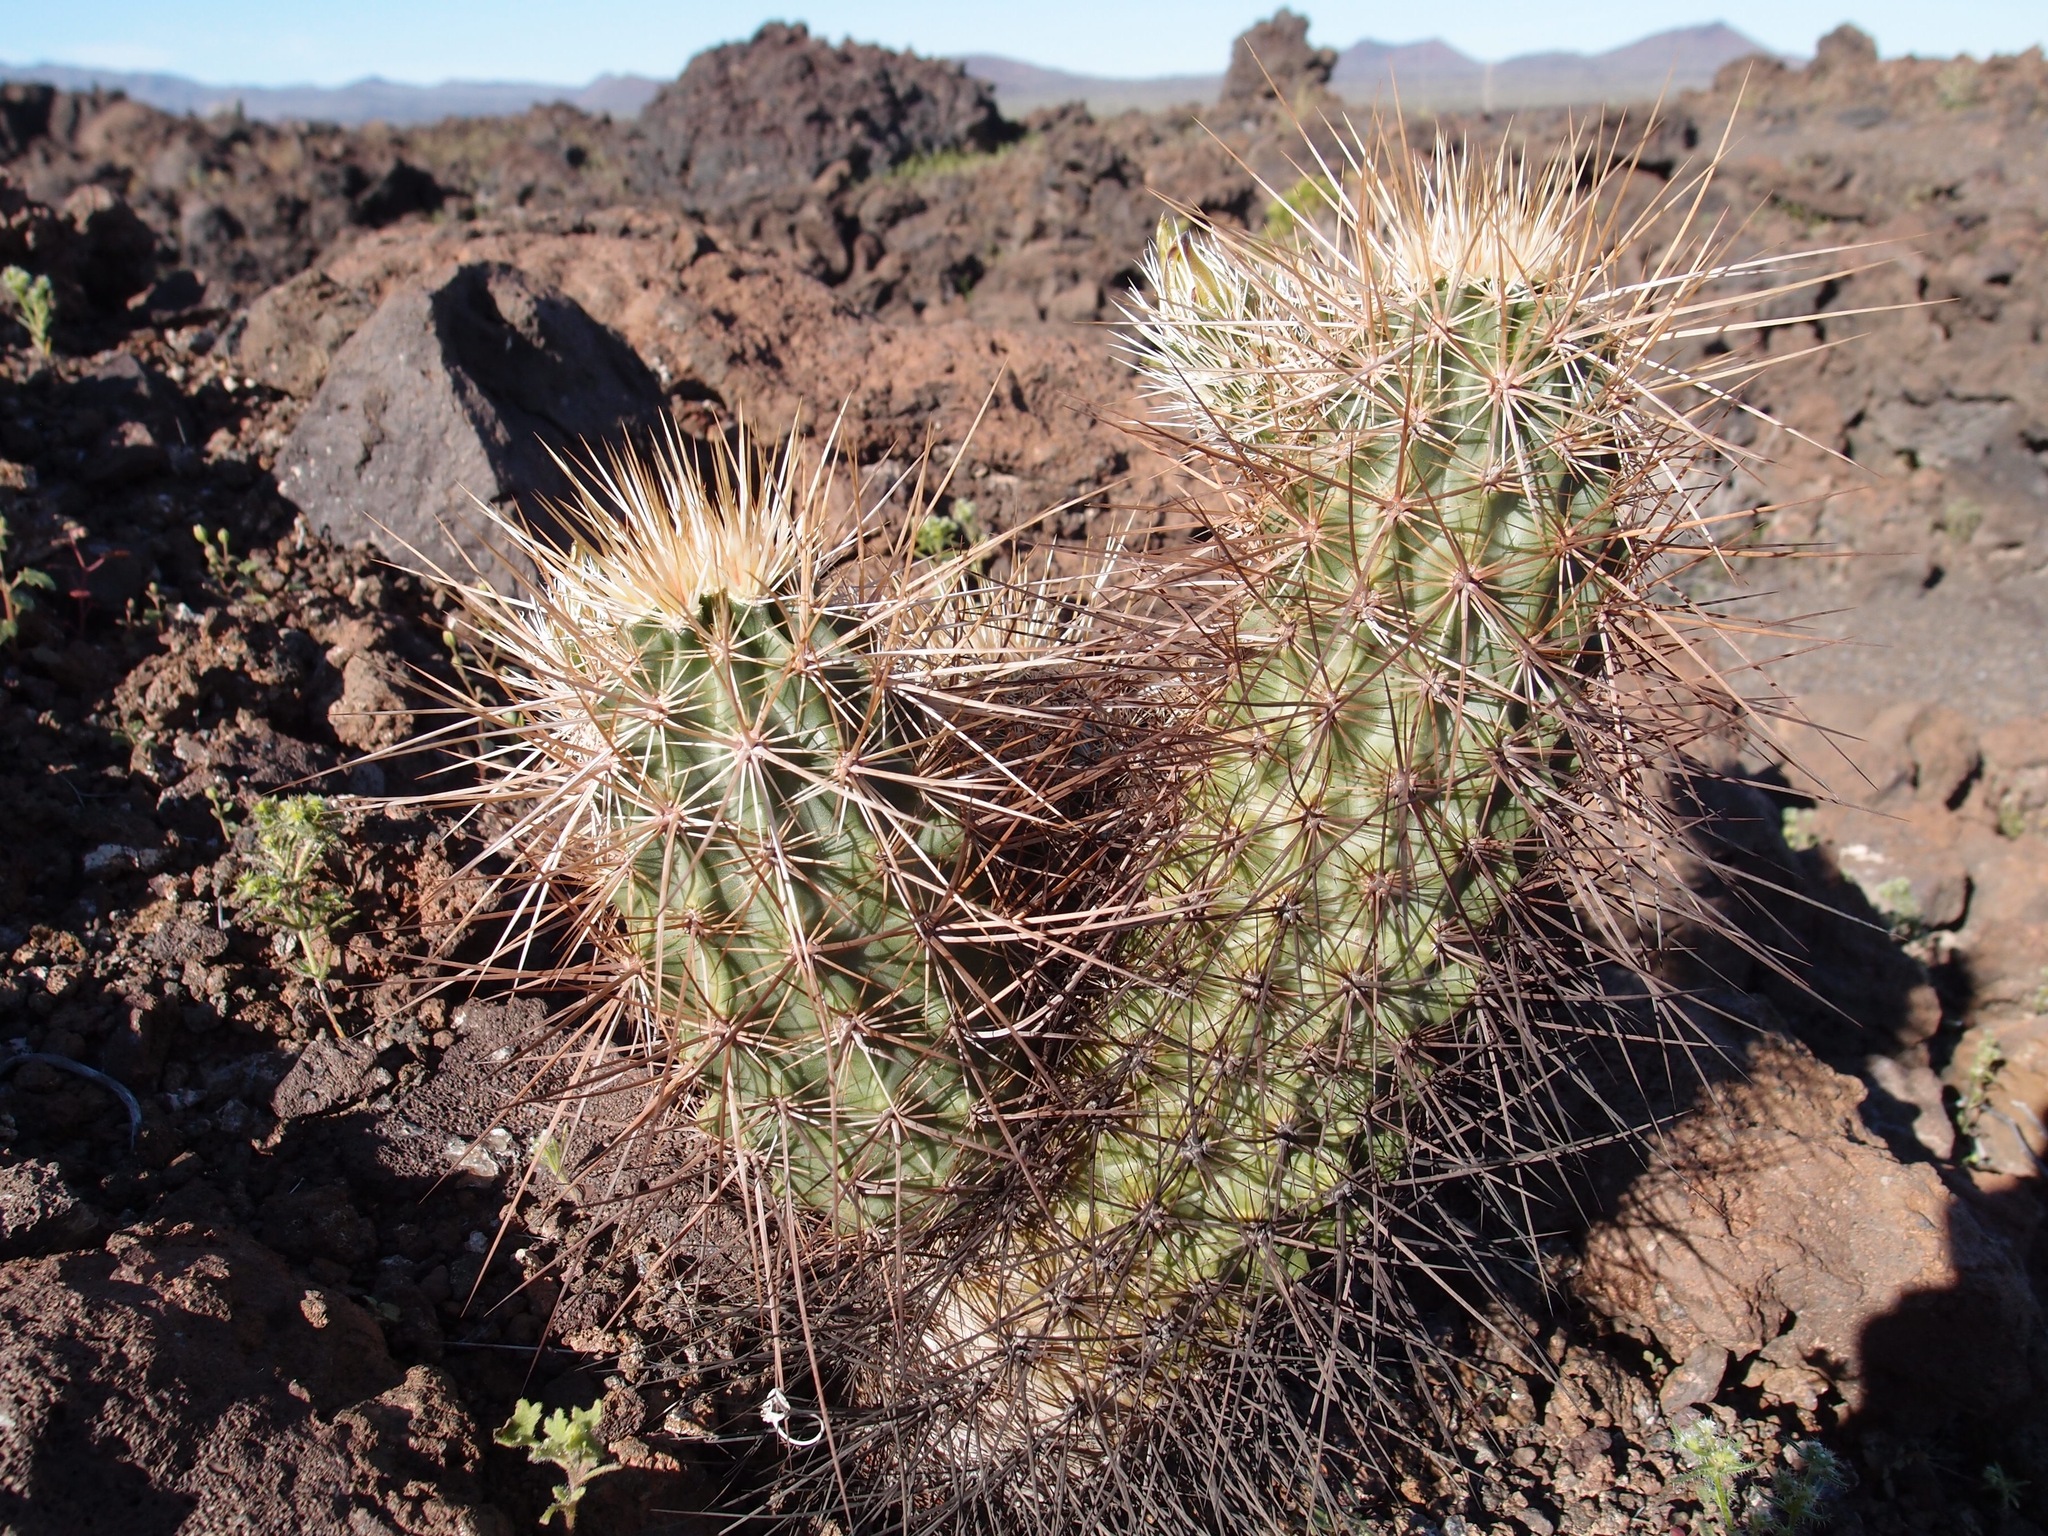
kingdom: Plantae
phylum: Tracheophyta
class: Magnoliopsida
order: Caryophyllales
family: Cactaceae
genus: Echinocereus
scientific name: Echinocereus nicholii
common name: Nichol's hedgehog cactus
